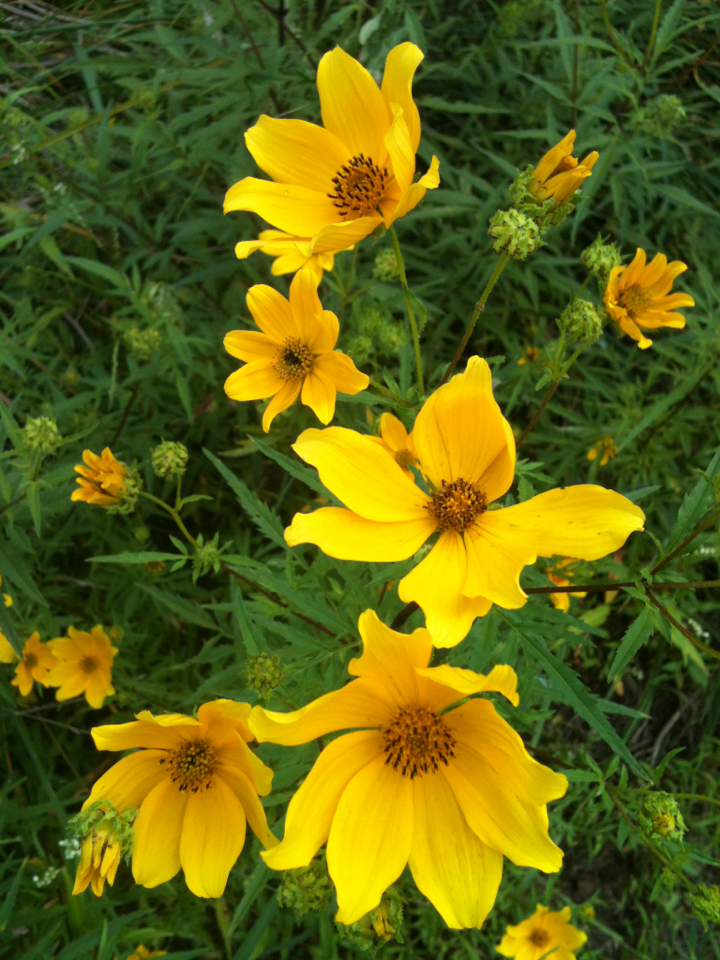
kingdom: Plantae
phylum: Tracheophyta
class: Magnoliopsida
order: Asterales
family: Asteraceae
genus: Bidens
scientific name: Bidens aristosa
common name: Western tickseed
